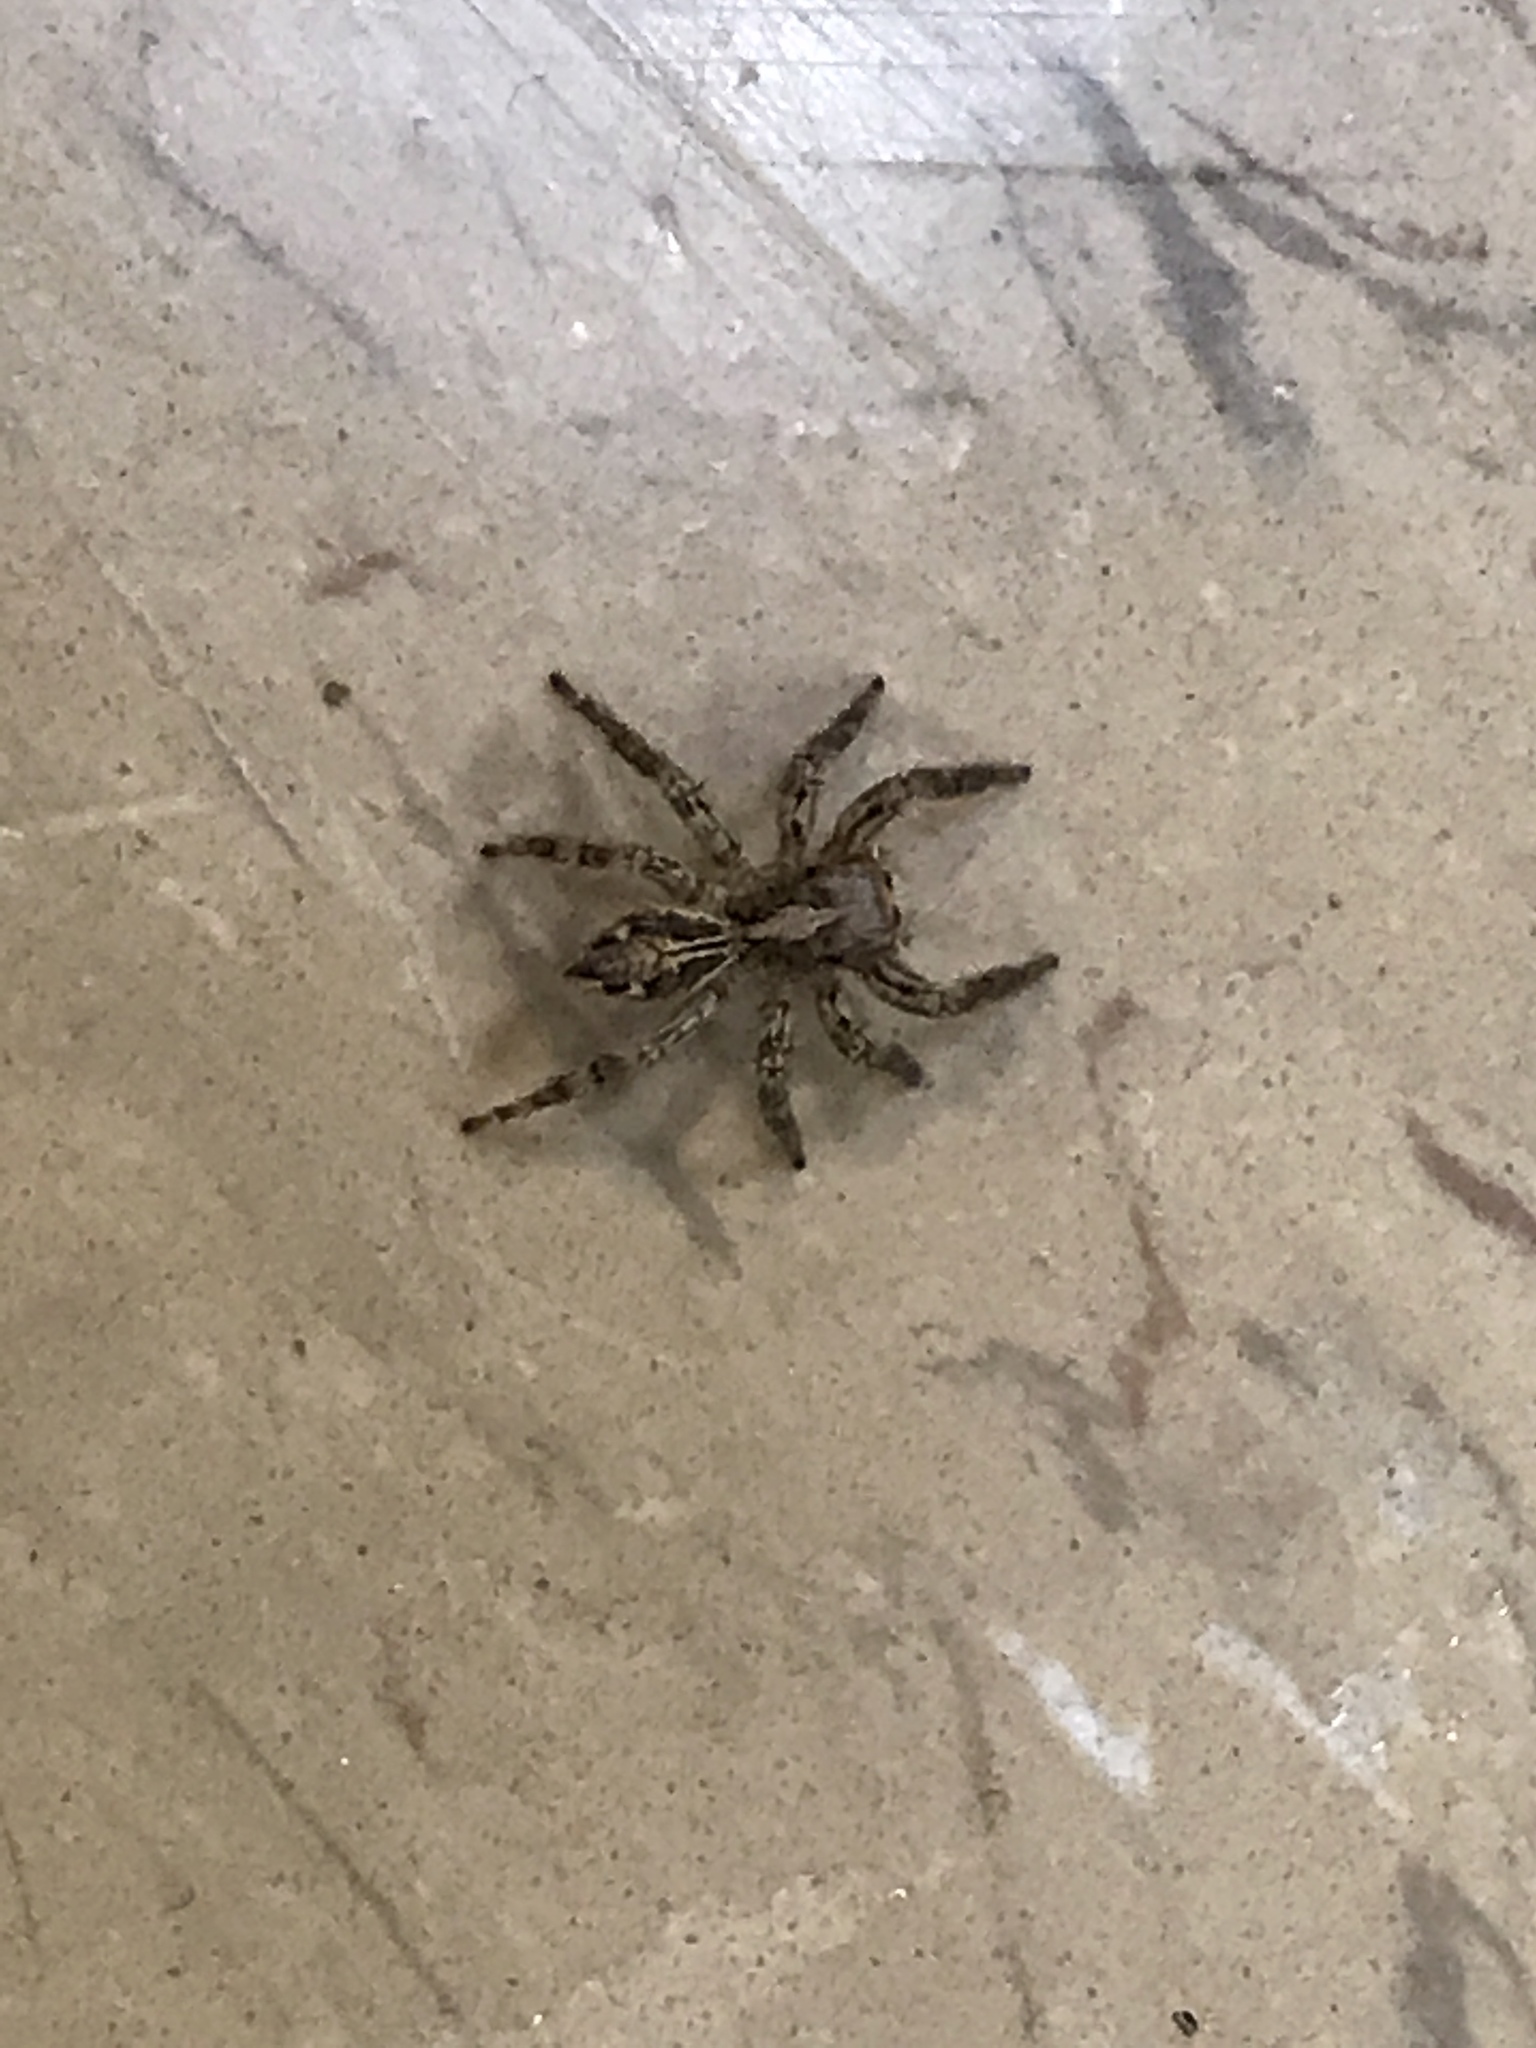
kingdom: Animalia
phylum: Arthropoda
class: Arachnida
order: Araneae
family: Salticidae
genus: Plexippus
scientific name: Plexippus paykulli
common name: Pantropical jumper
